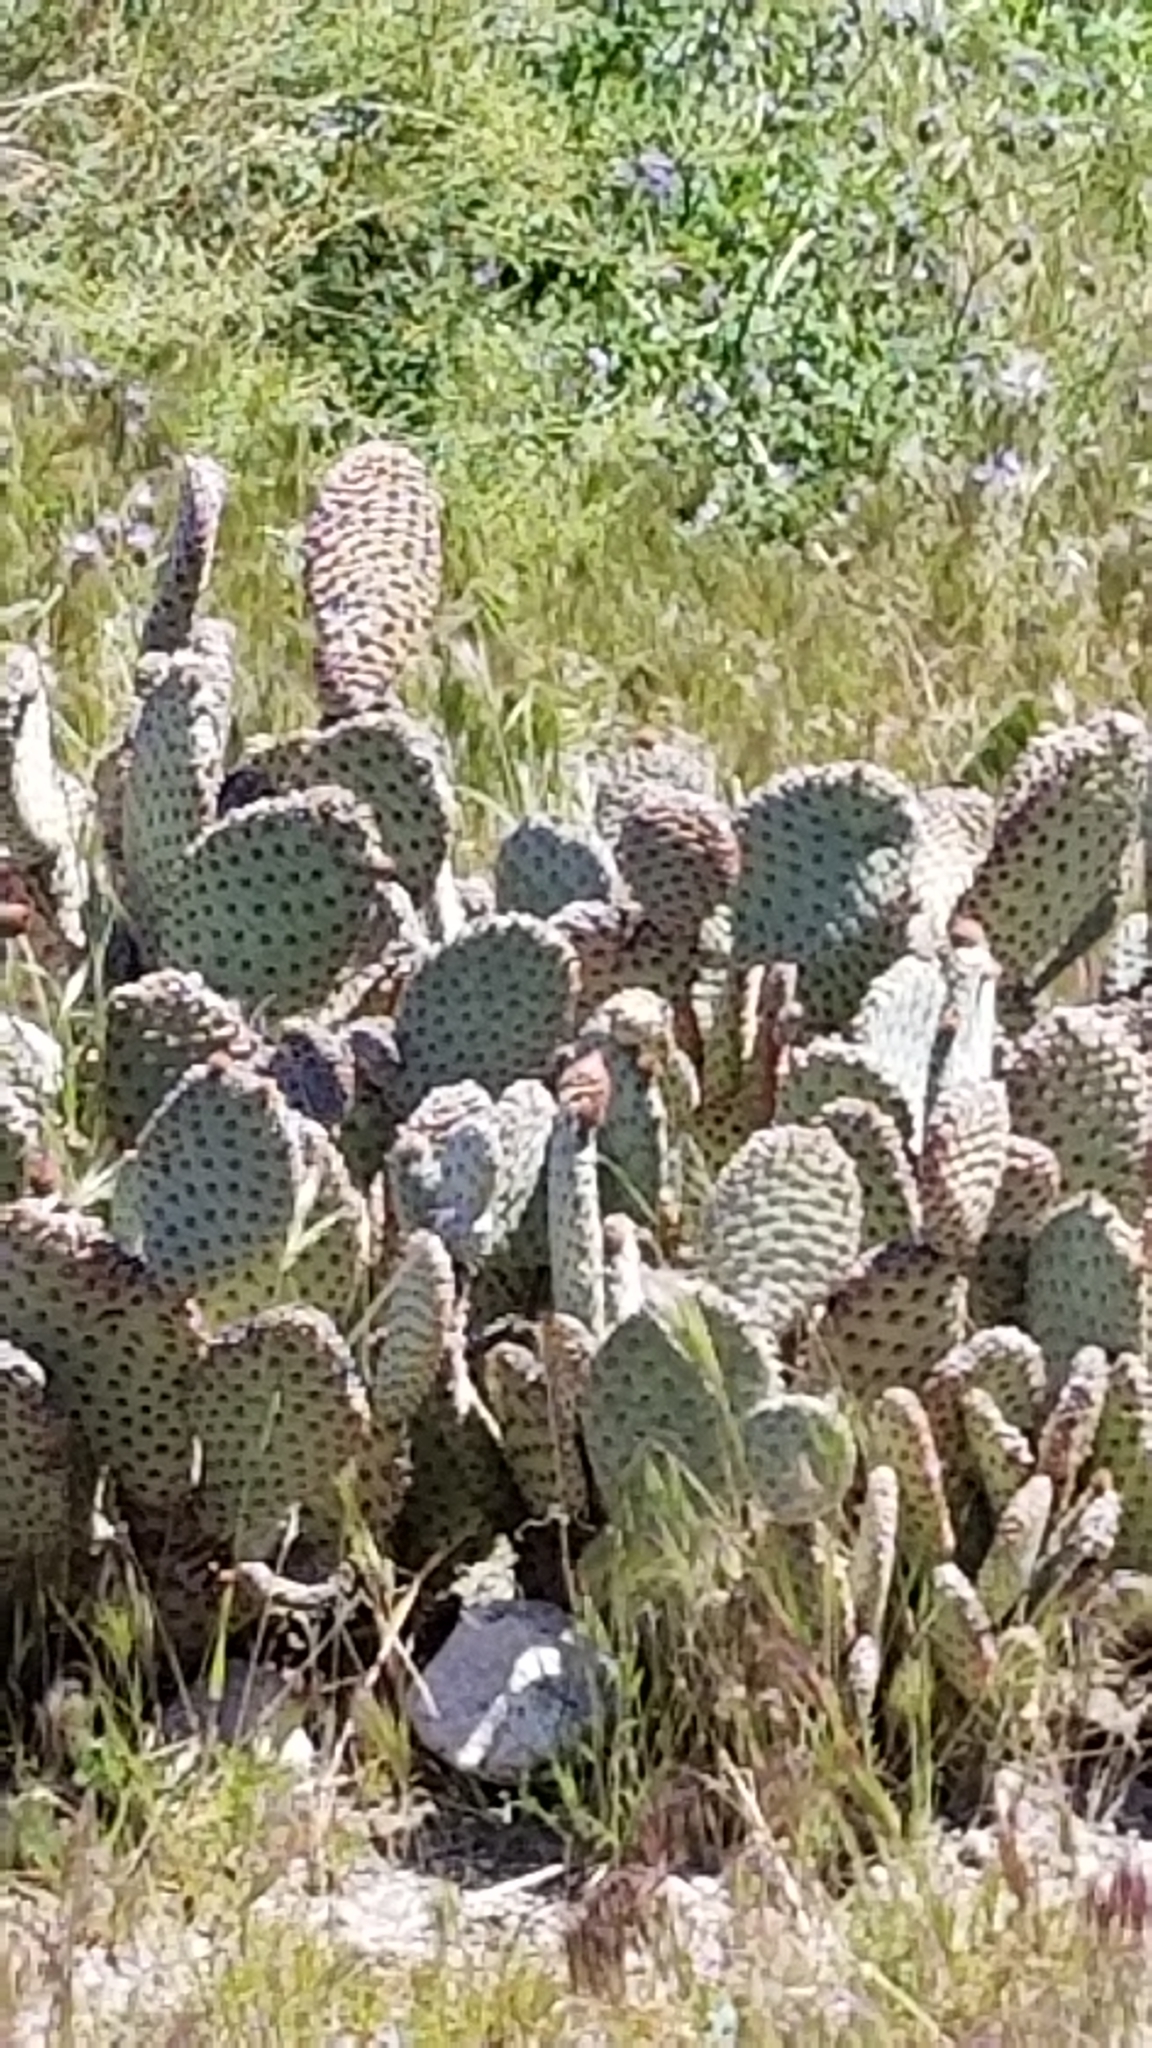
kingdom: Plantae
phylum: Tracheophyta
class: Magnoliopsida
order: Caryophyllales
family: Cactaceae
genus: Opuntia
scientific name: Opuntia basilaris
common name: Beavertail prickly-pear
